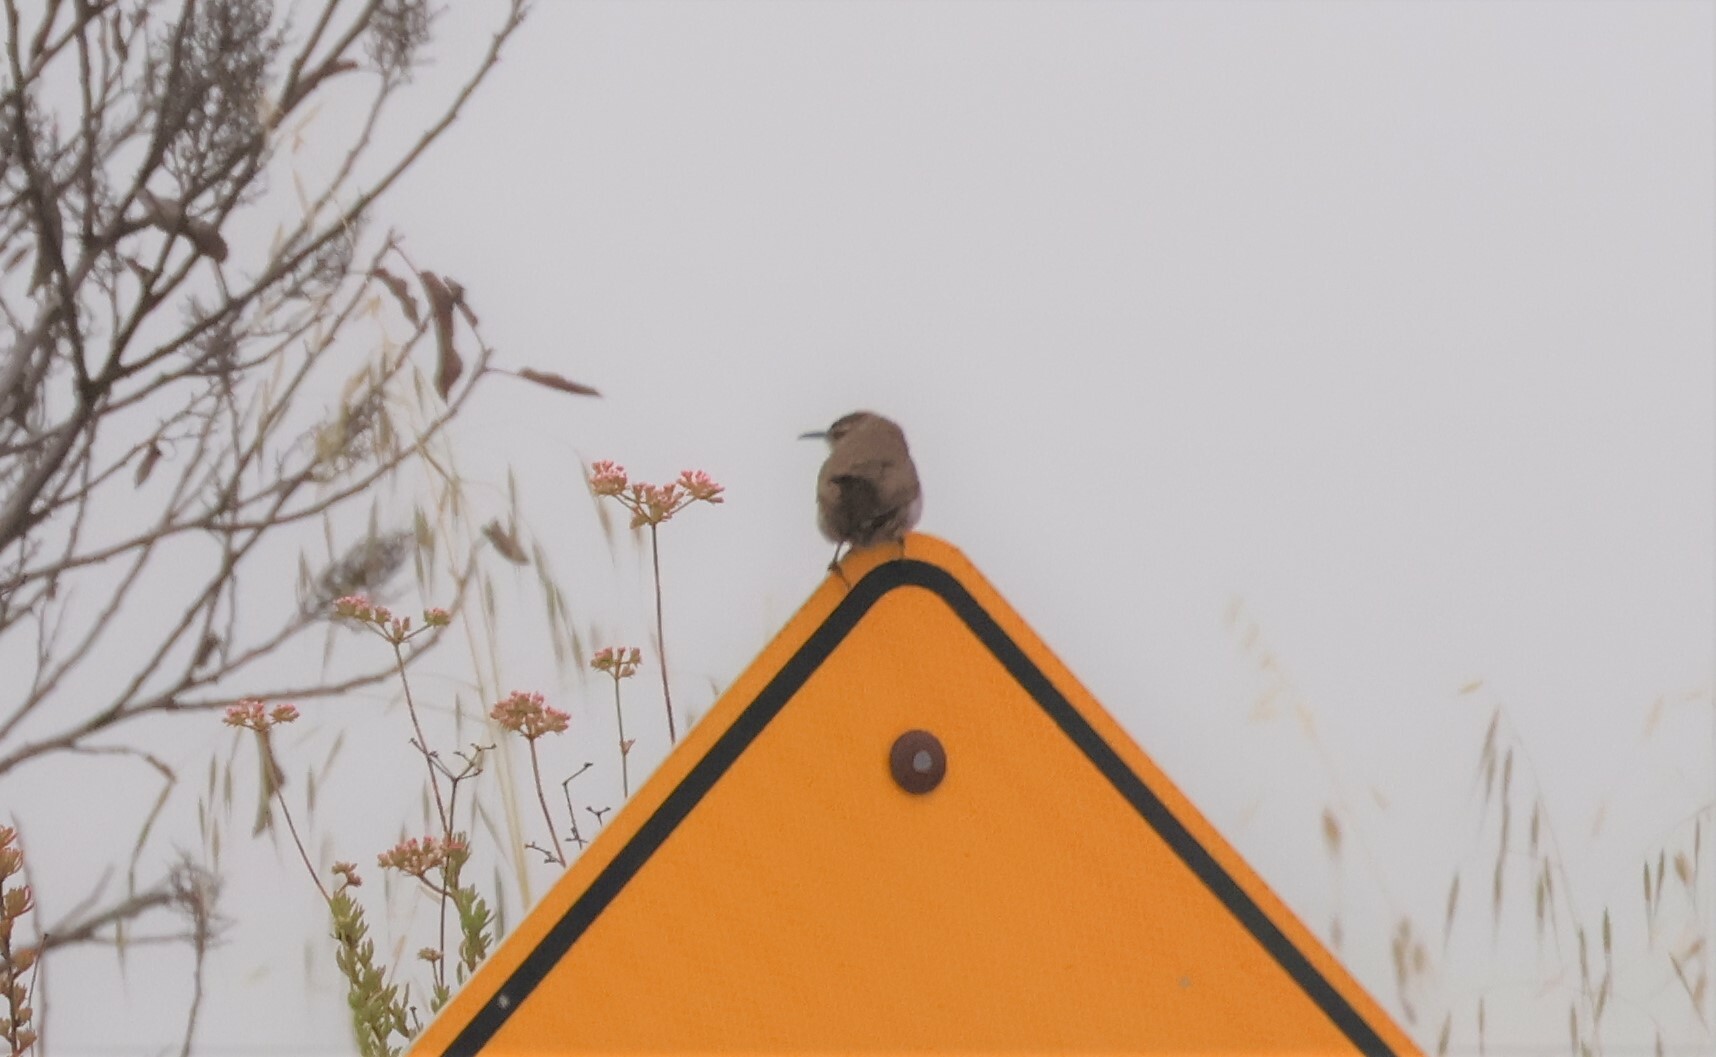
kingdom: Animalia
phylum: Chordata
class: Aves
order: Passeriformes
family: Troglodytidae
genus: Thryomanes
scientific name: Thryomanes bewickii
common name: Bewick's wren
